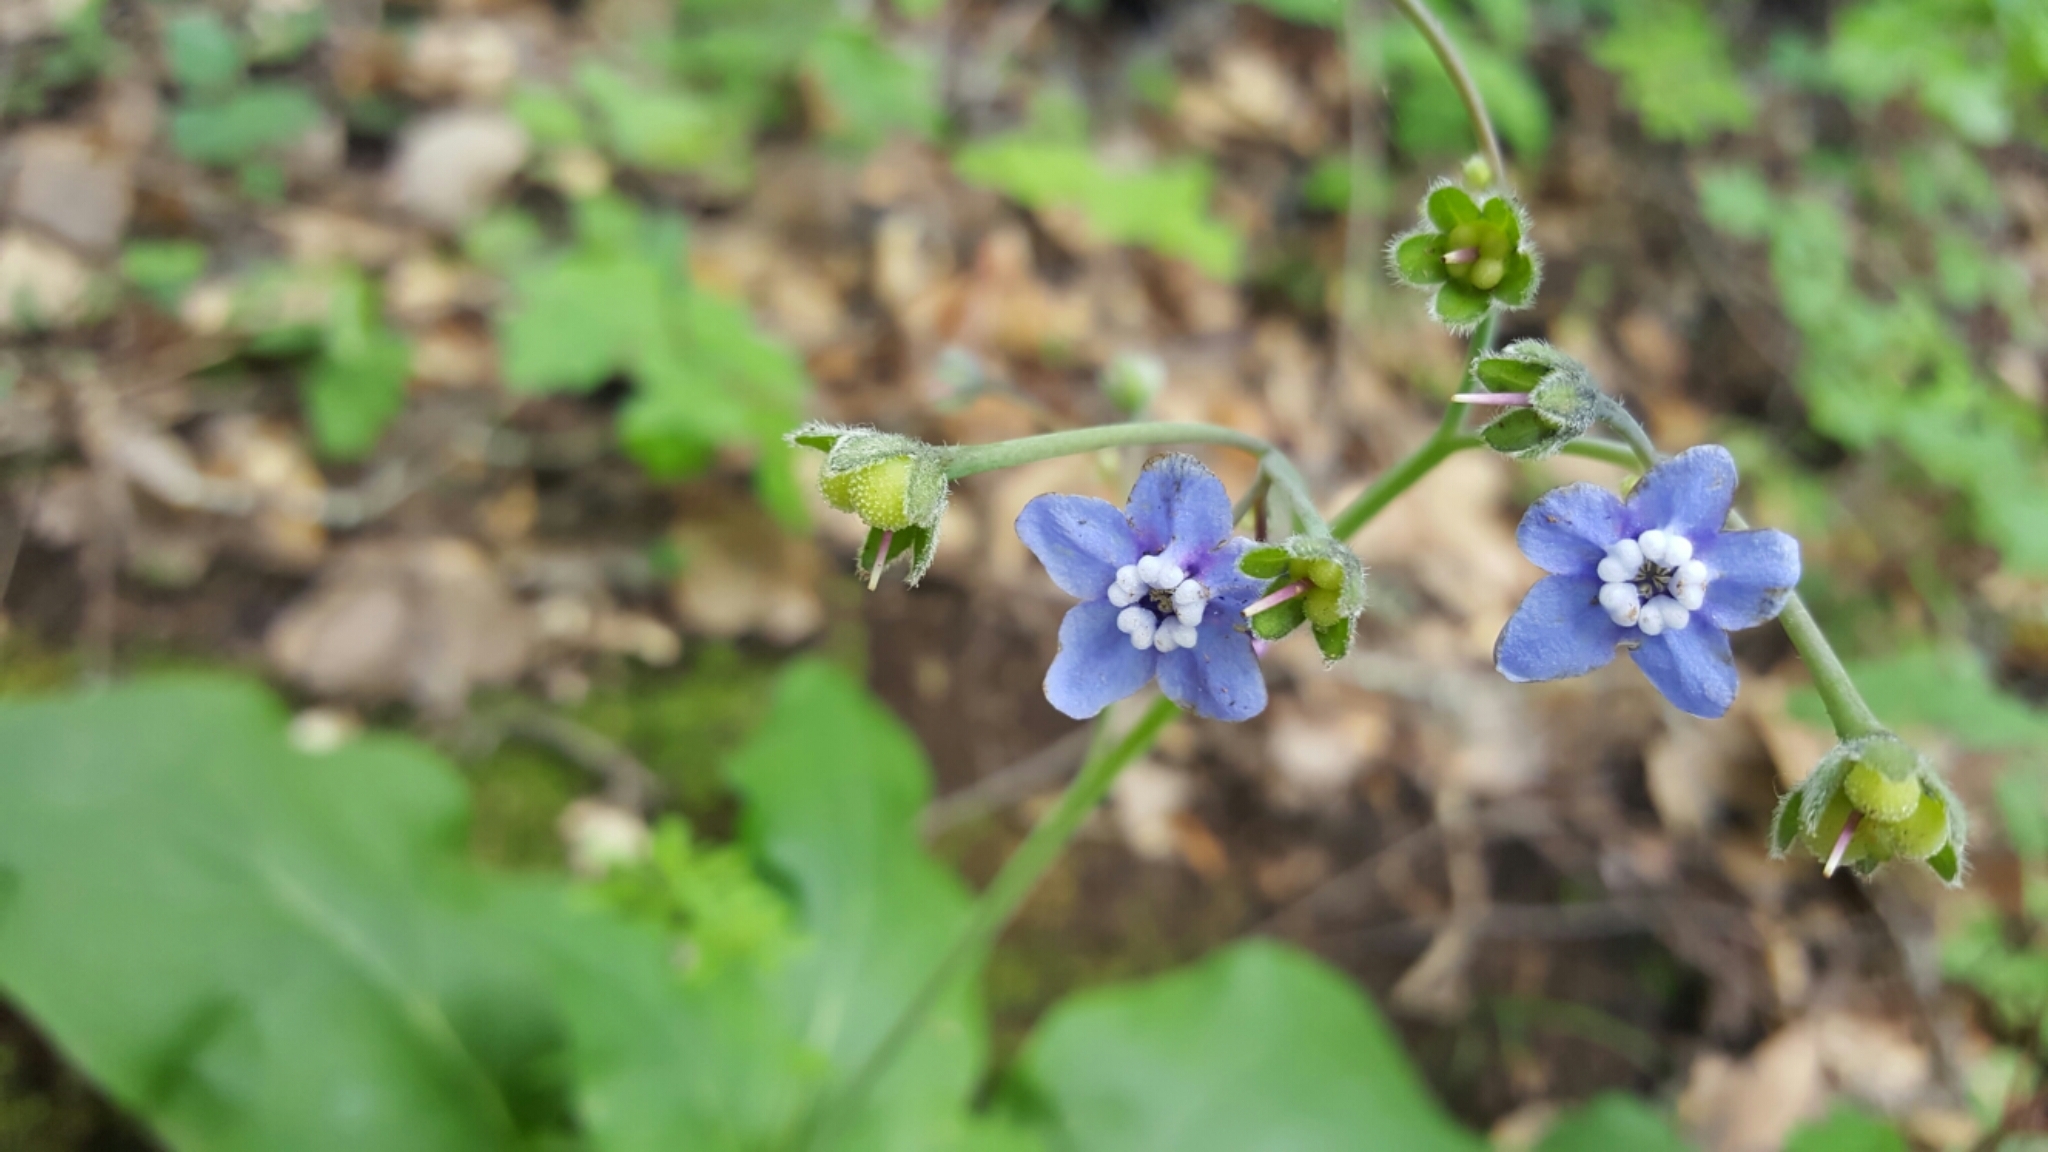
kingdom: Plantae
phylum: Tracheophyta
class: Magnoliopsida
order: Boraginales
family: Boraginaceae
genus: Adelinia
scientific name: Adelinia grande
